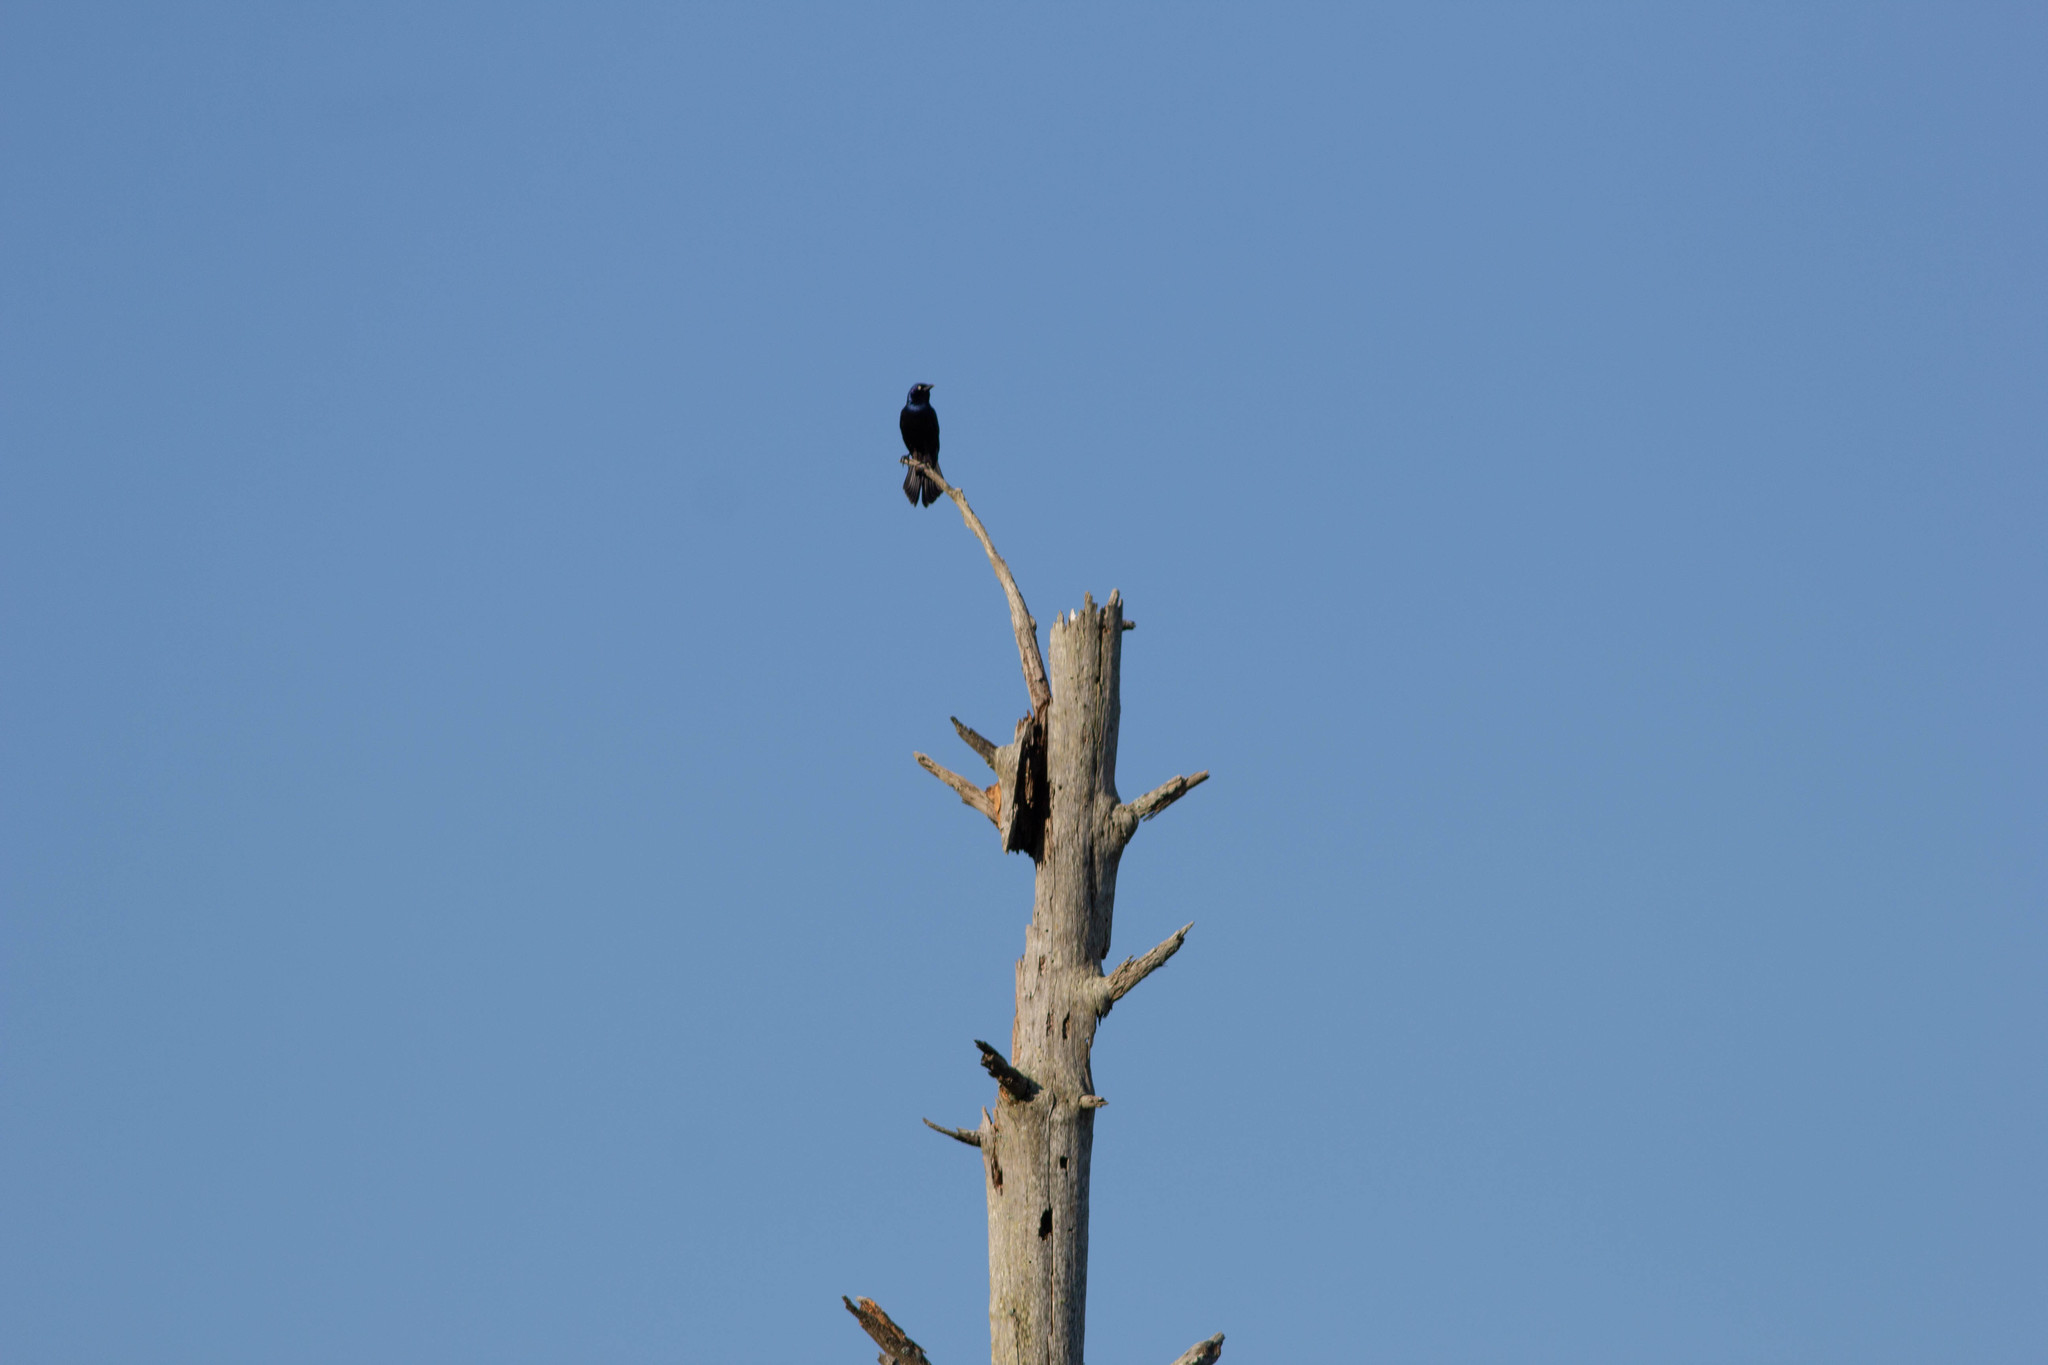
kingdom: Animalia
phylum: Chordata
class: Aves
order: Passeriformes
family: Icteridae
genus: Quiscalus
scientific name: Quiscalus quiscula
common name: Common grackle
